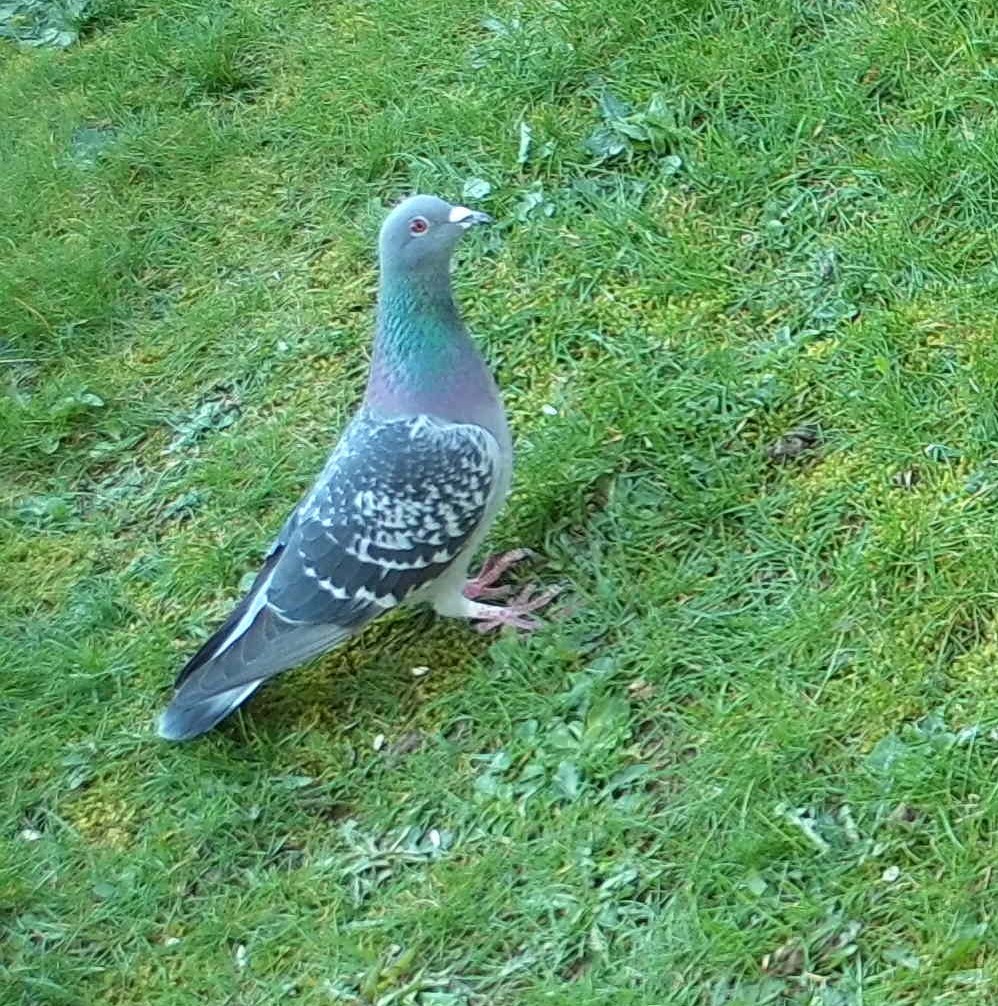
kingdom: Animalia
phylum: Chordata
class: Aves
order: Columbiformes
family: Columbidae
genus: Columba
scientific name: Columba livia
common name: Rock pigeon
